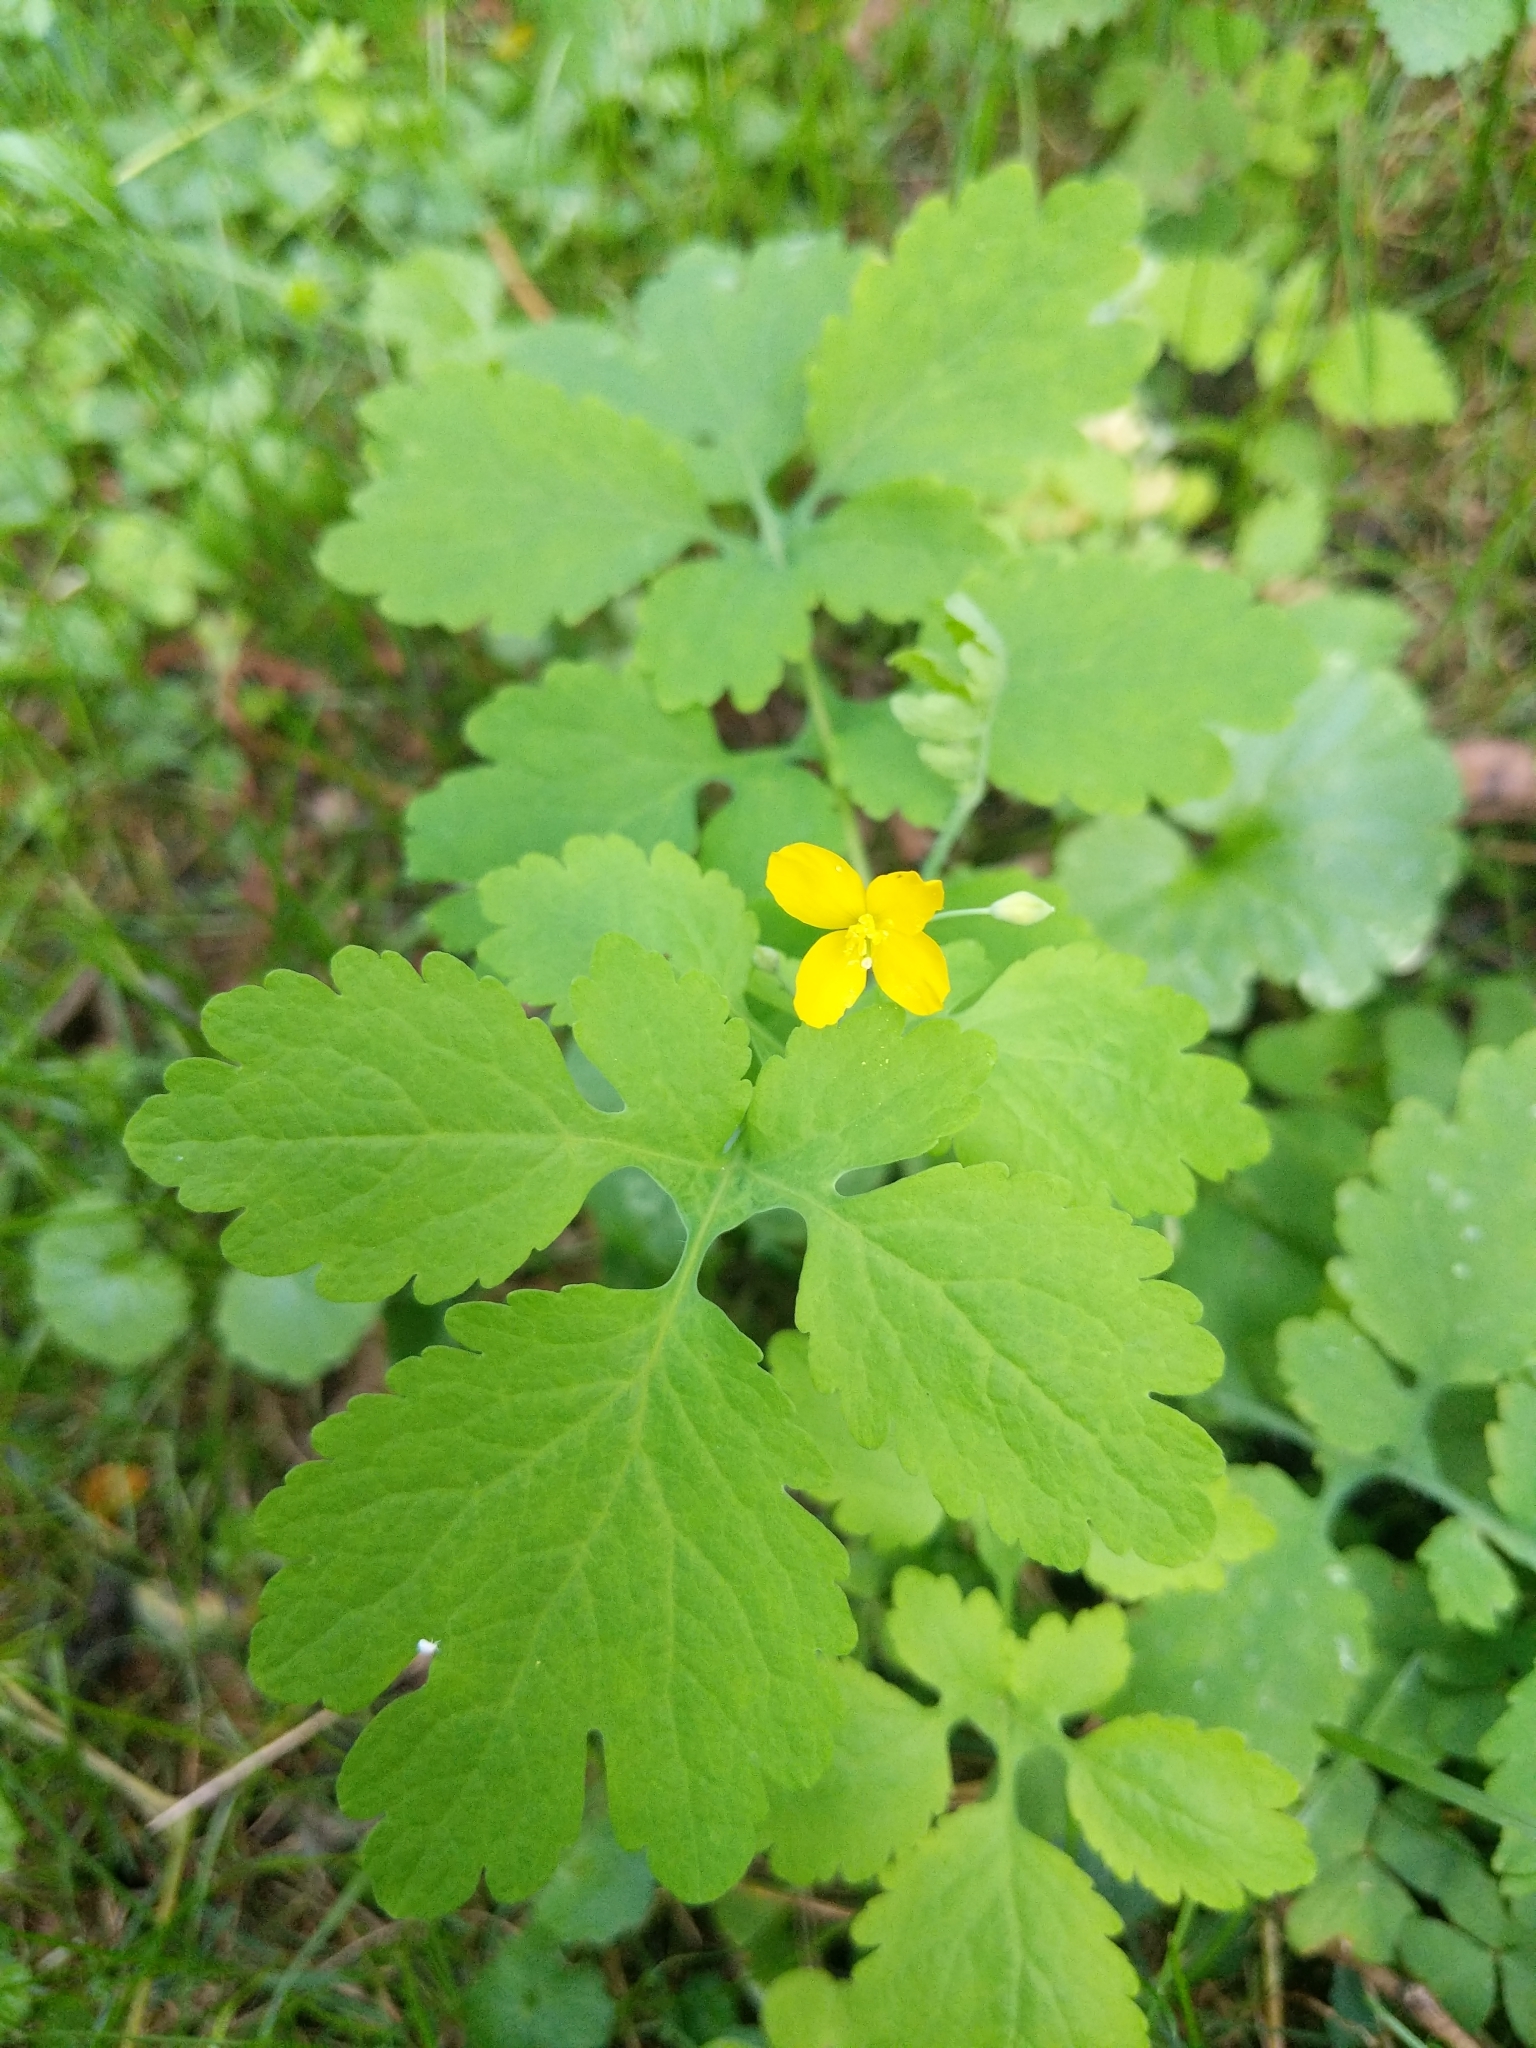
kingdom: Plantae
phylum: Tracheophyta
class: Magnoliopsida
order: Ranunculales
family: Papaveraceae
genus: Chelidonium
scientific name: Chelidonium majus
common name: Greater celandine
